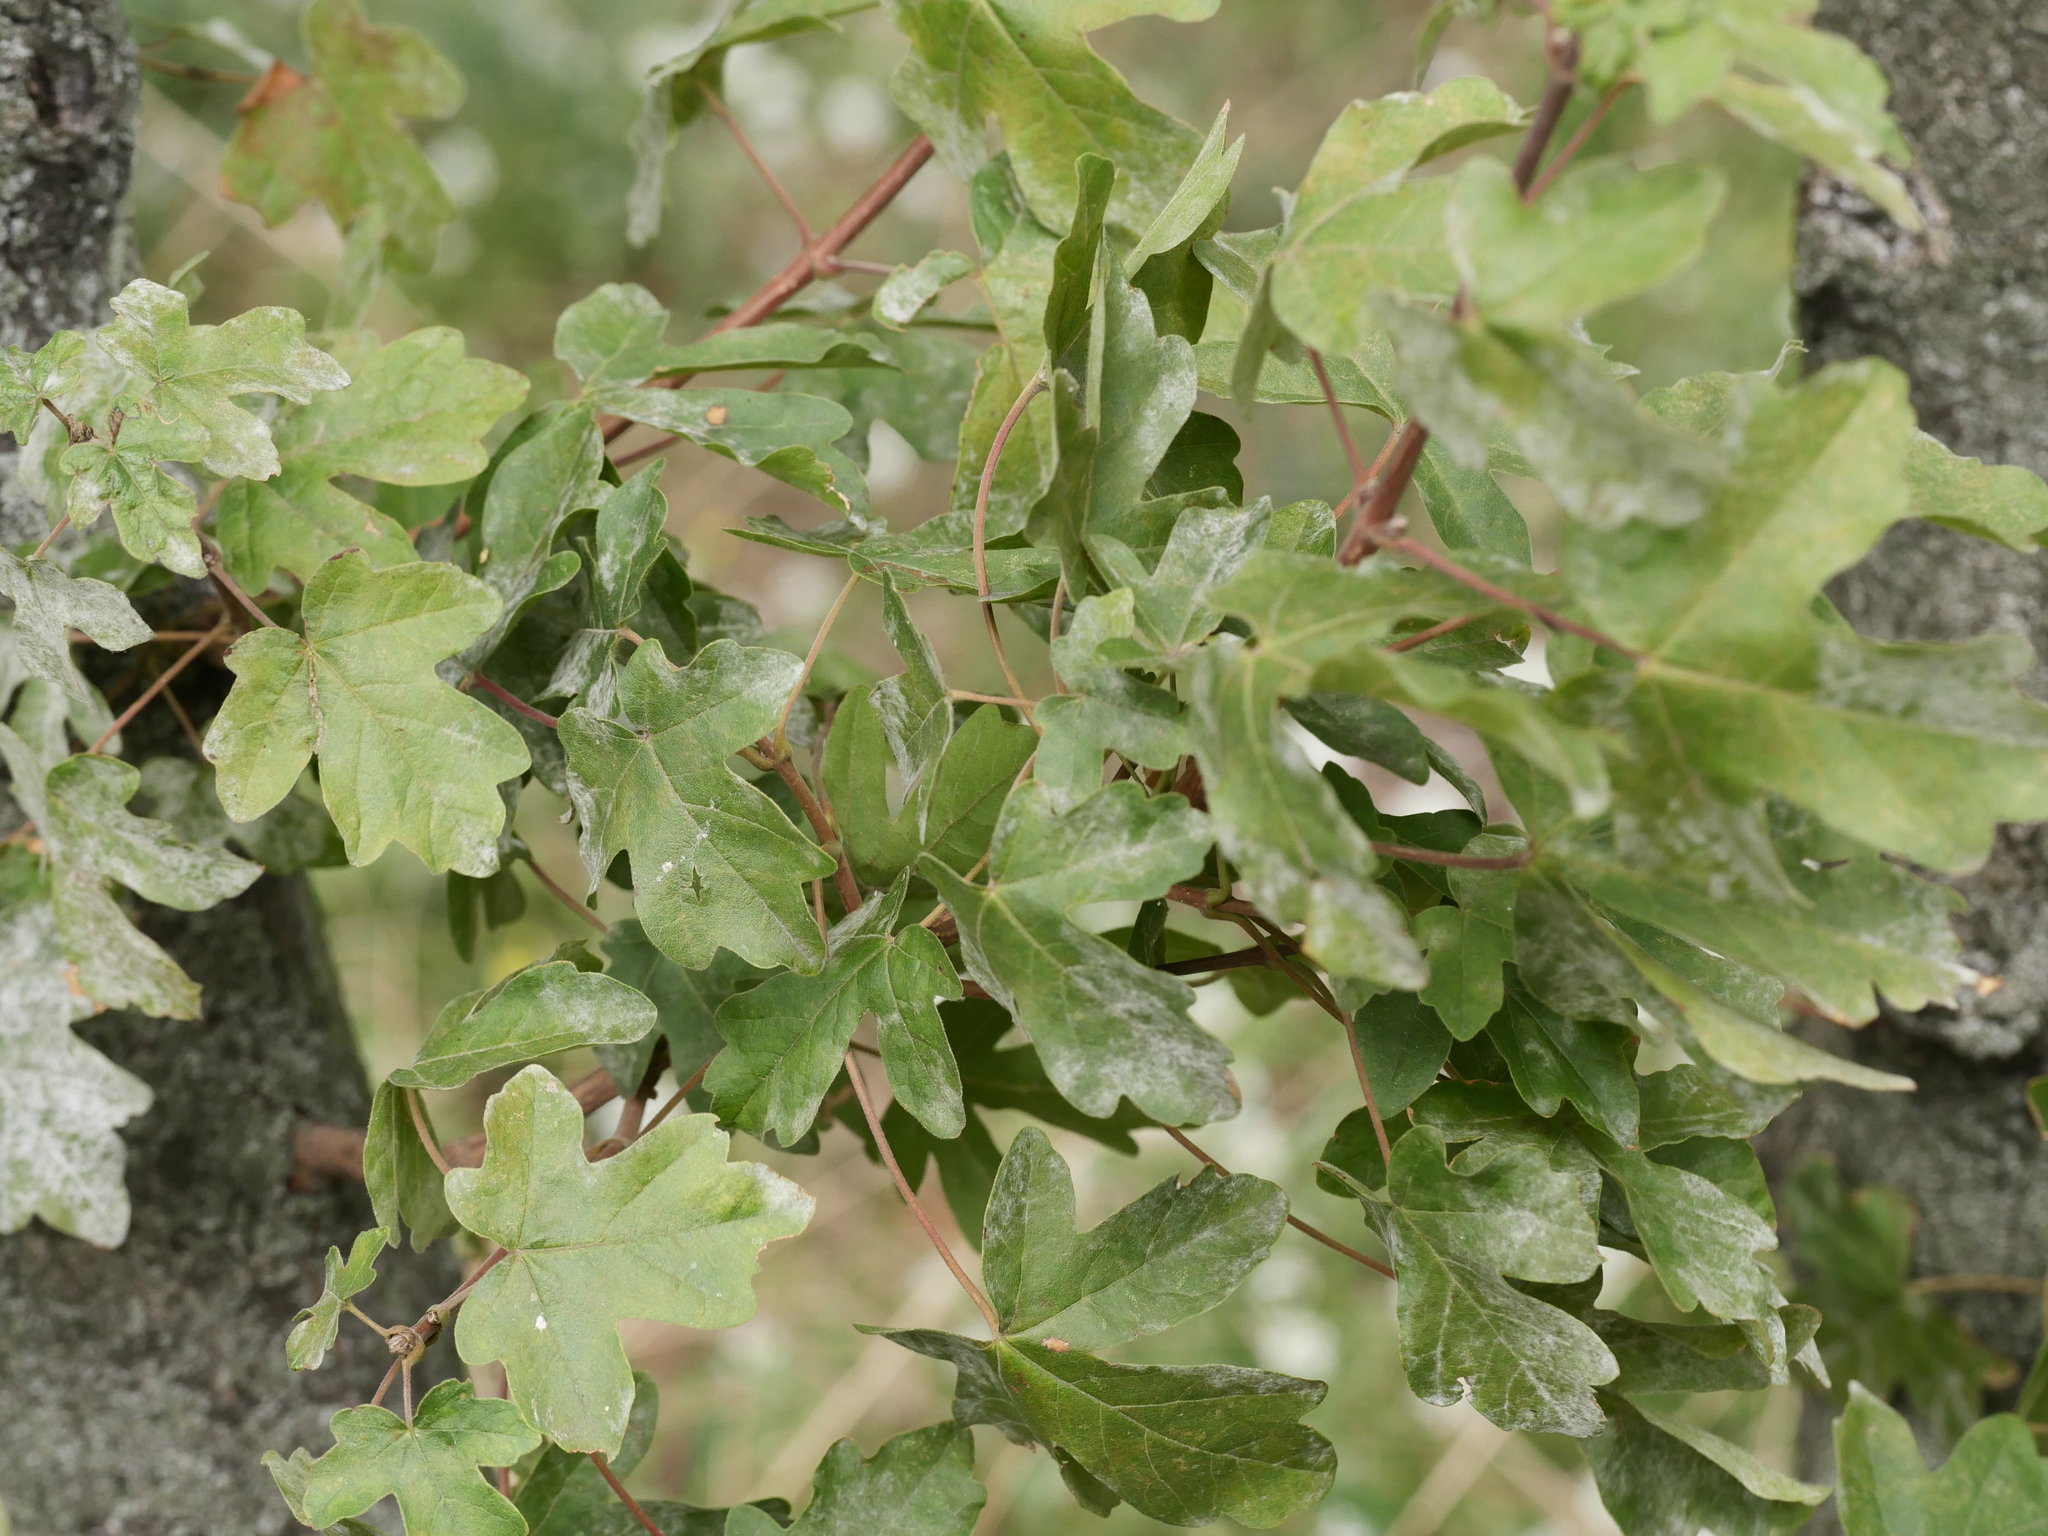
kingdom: Plantae
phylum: Tracheophyta
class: Magnoliopsida
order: Sapindales
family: Sapindaceae
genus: Acer
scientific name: Acer campestre
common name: Field maple
